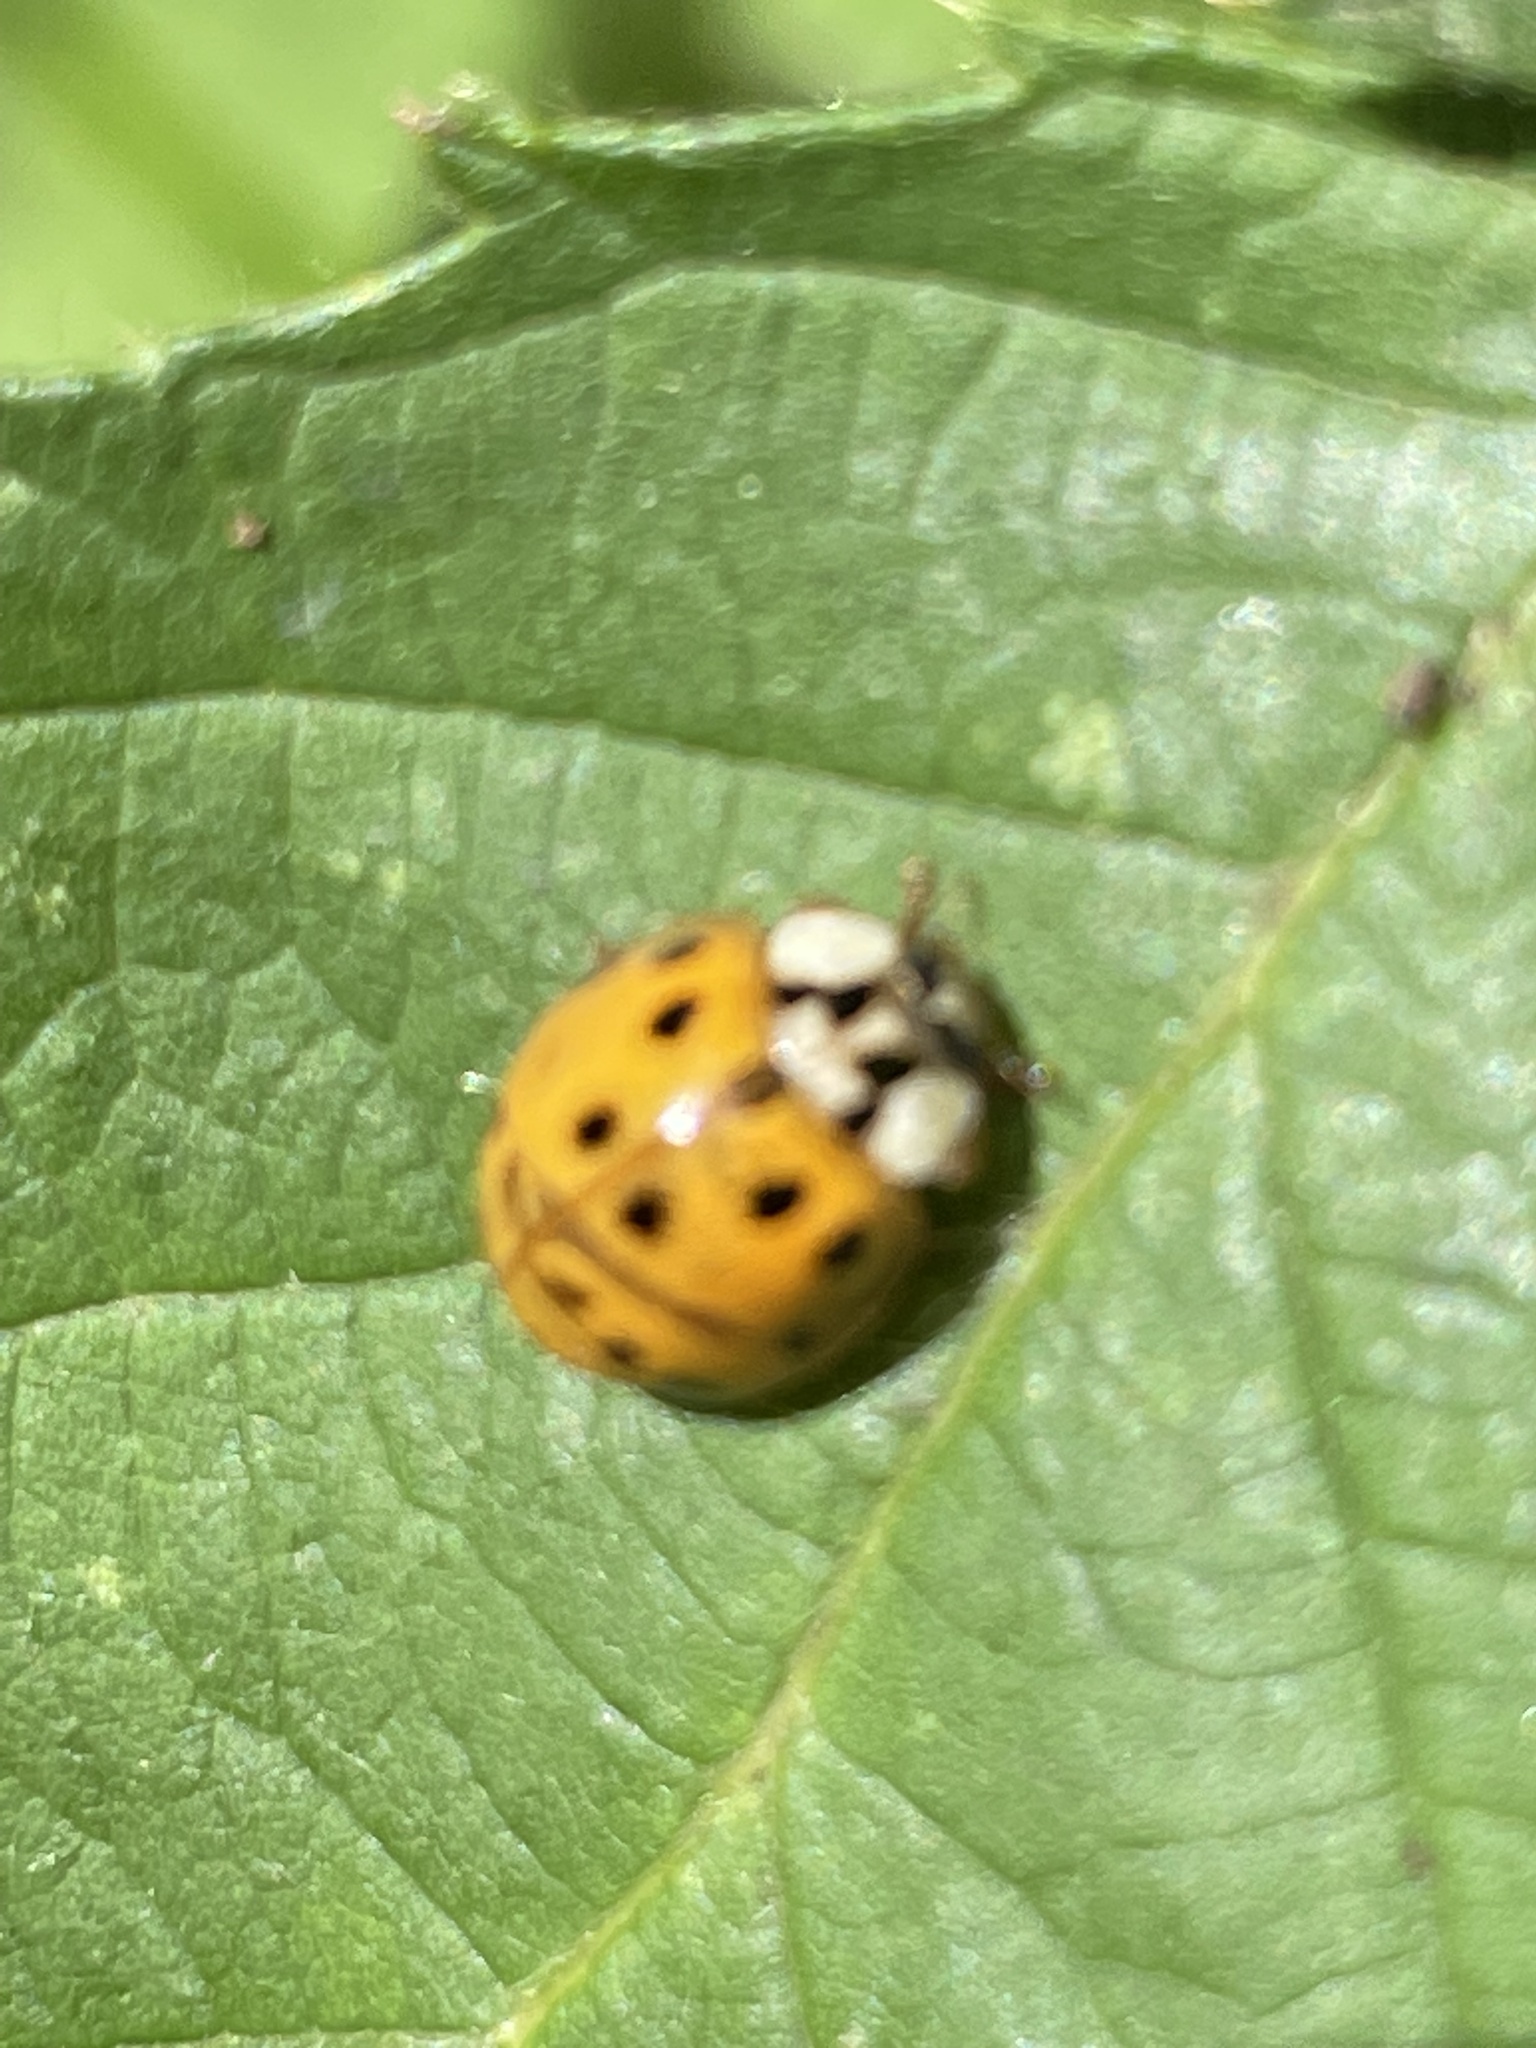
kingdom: Animalia
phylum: Arthropoda
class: Insecta
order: Coleoptera
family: Coccinellidae
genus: Harmonia
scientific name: Harmonia axyridis
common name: Harlequin ladybird
